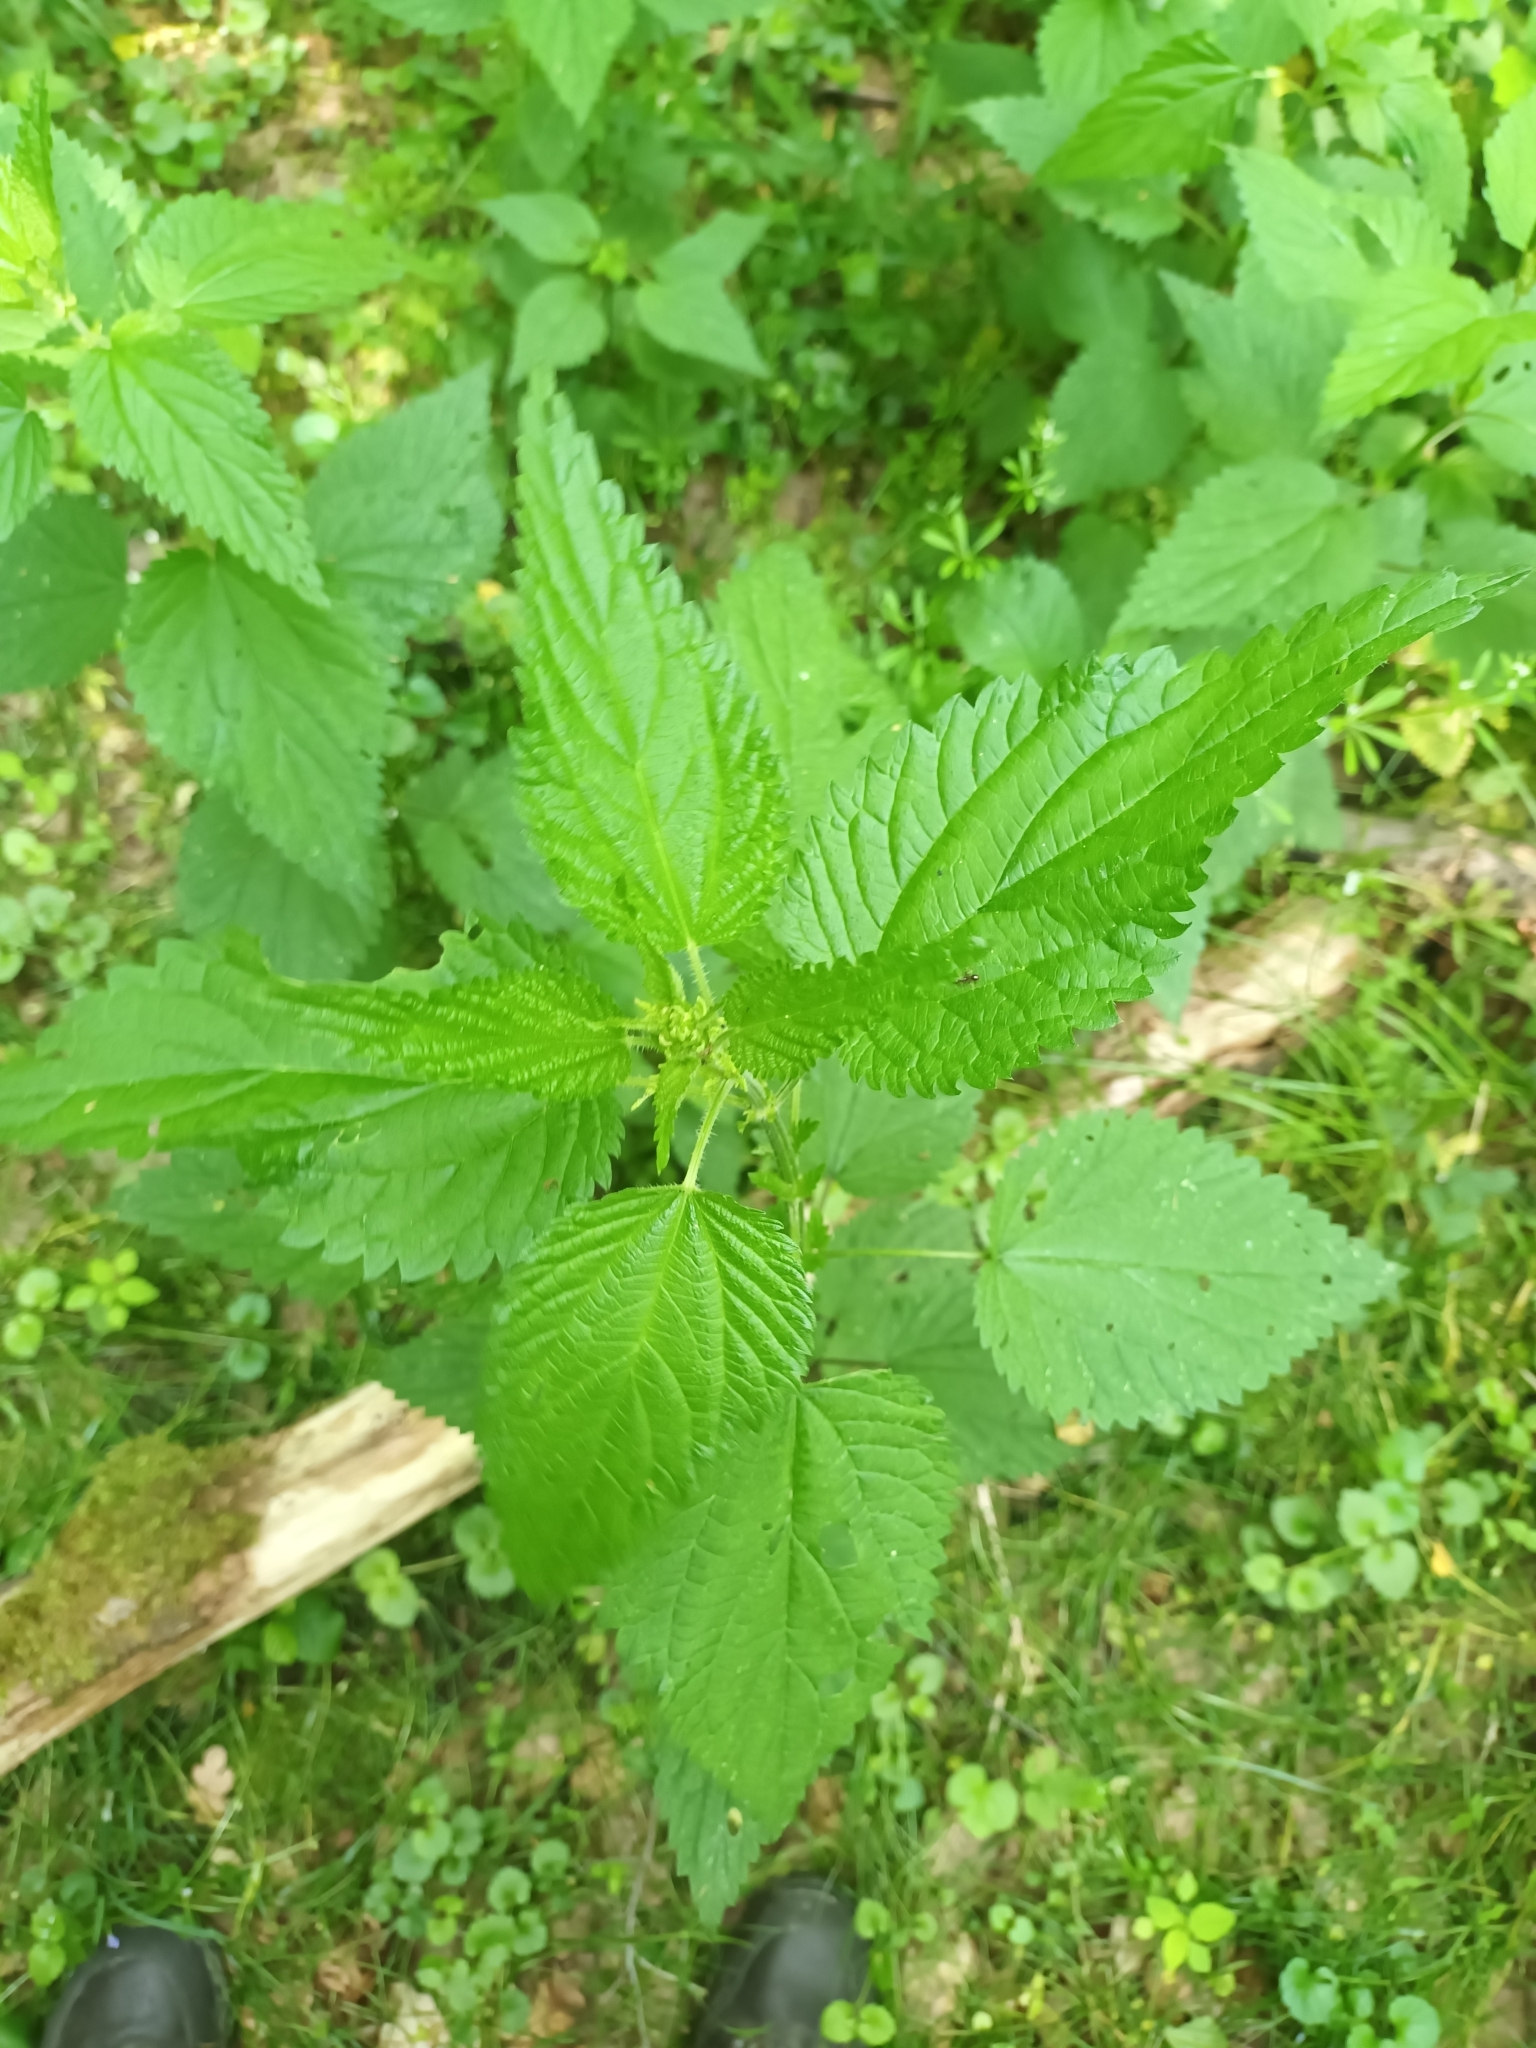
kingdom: Plantae
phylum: Tracheophyta
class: Magnoliopsida
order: Rosales
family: Urticaceae
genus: Urtica
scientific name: Urtica dioica
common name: Common nettle
